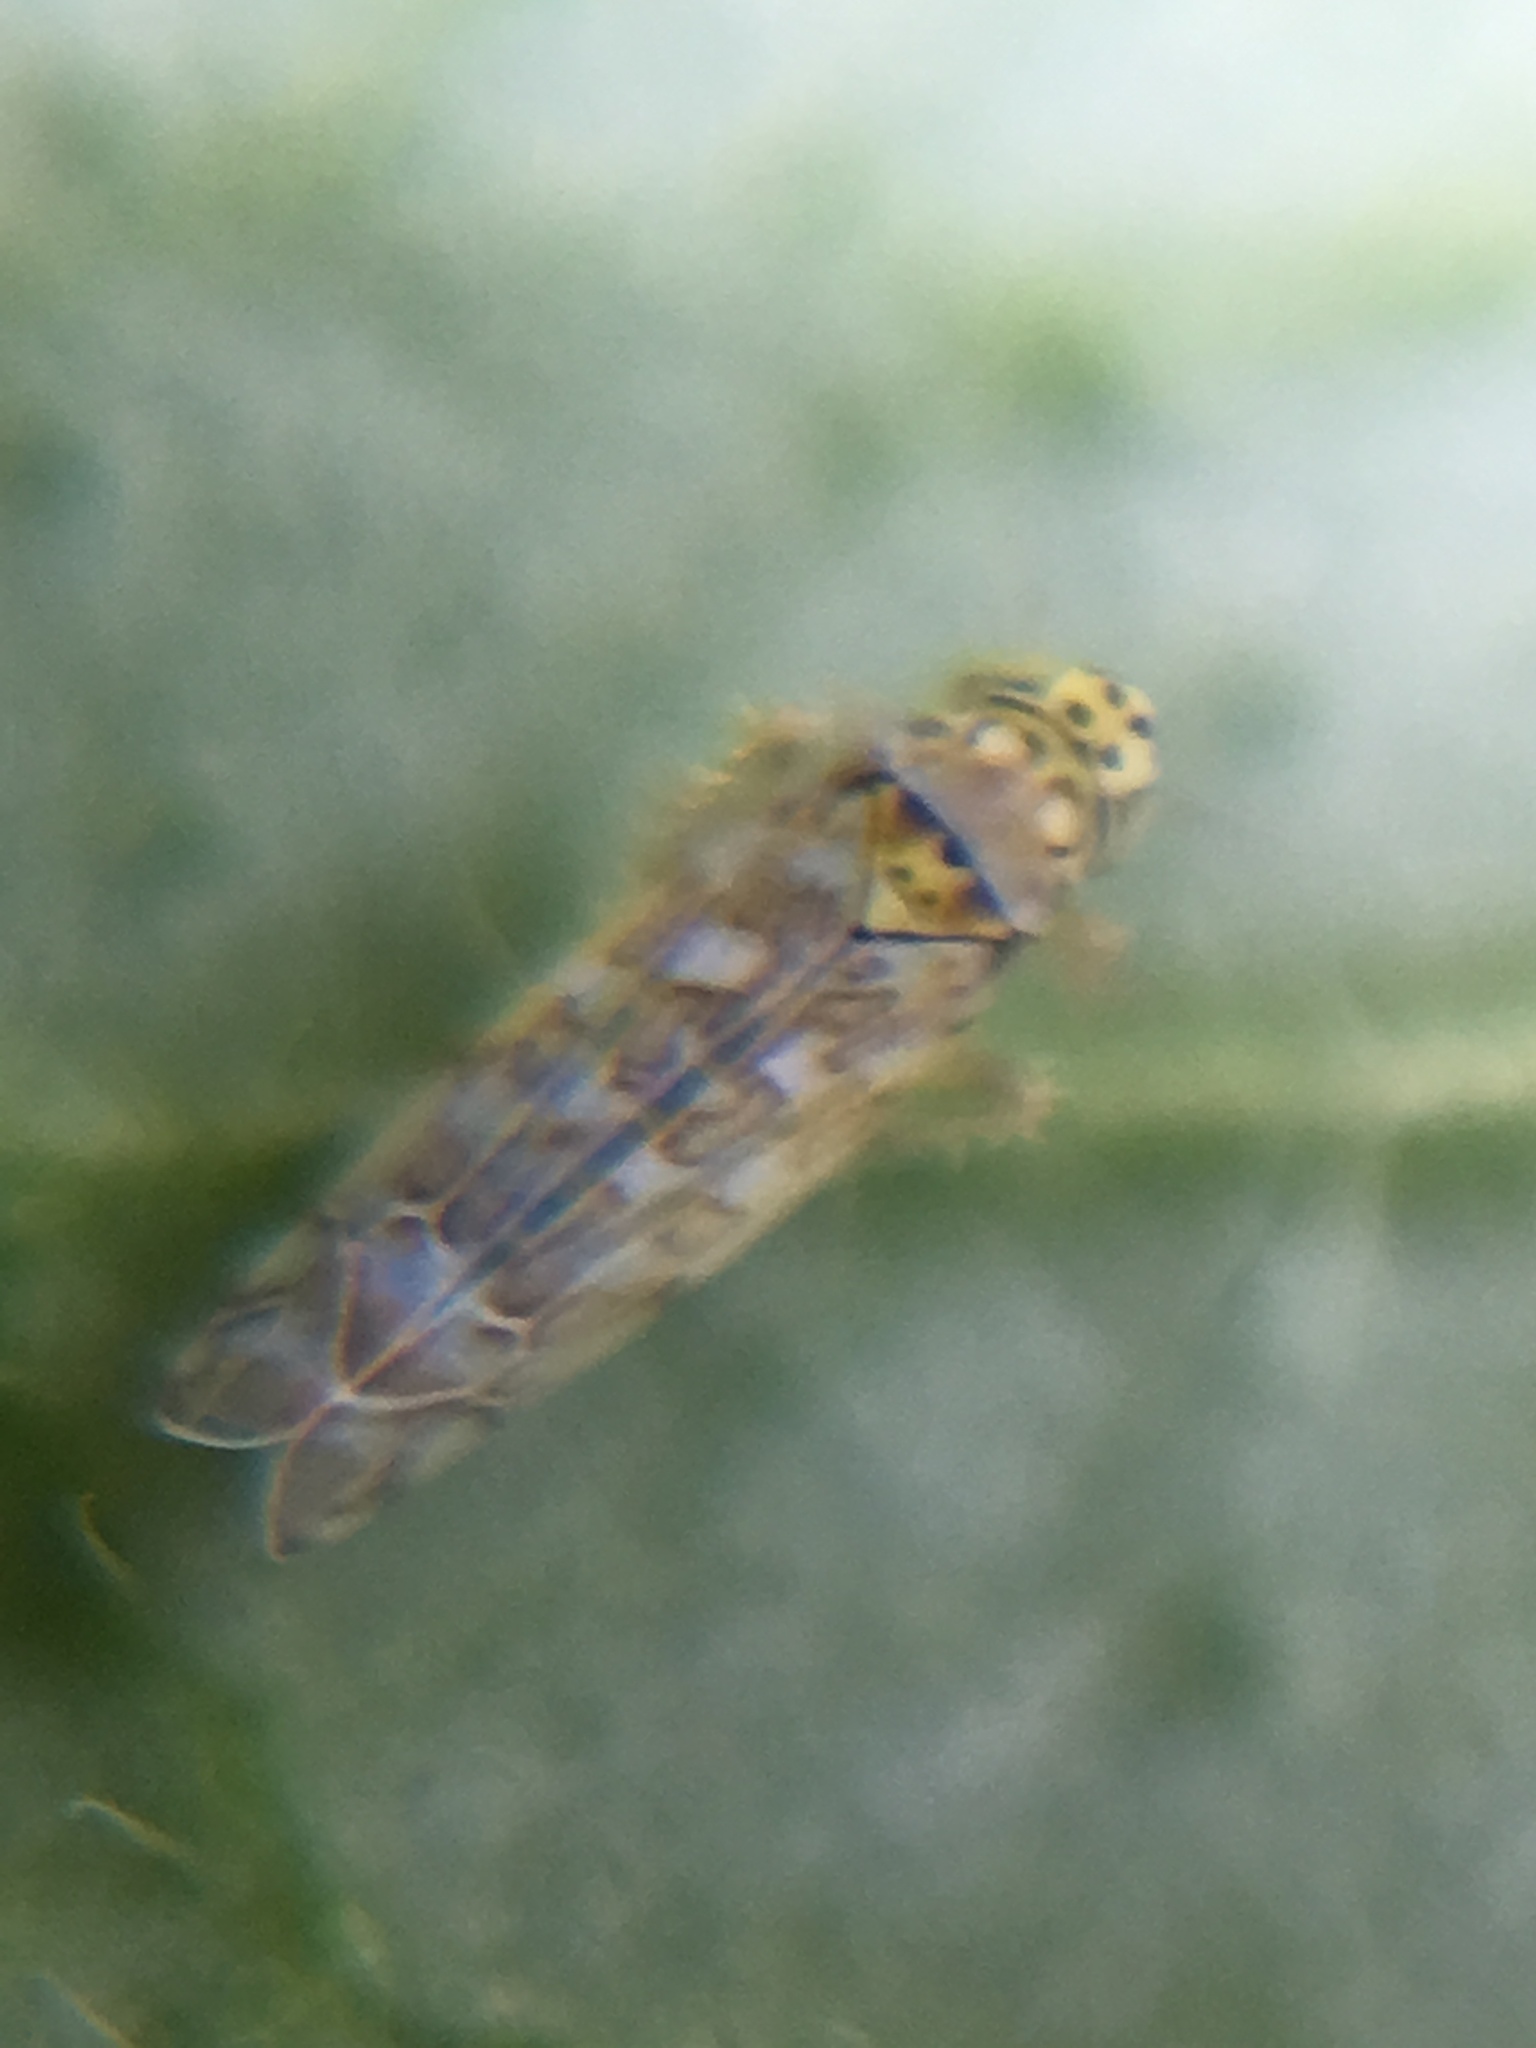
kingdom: Animalia
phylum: Arthropoda
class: Insecta
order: Hemiptera
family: Cicadellidae
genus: Eupteryx
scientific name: Eupteryx decemnotata
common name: Ligurian leafhopper
